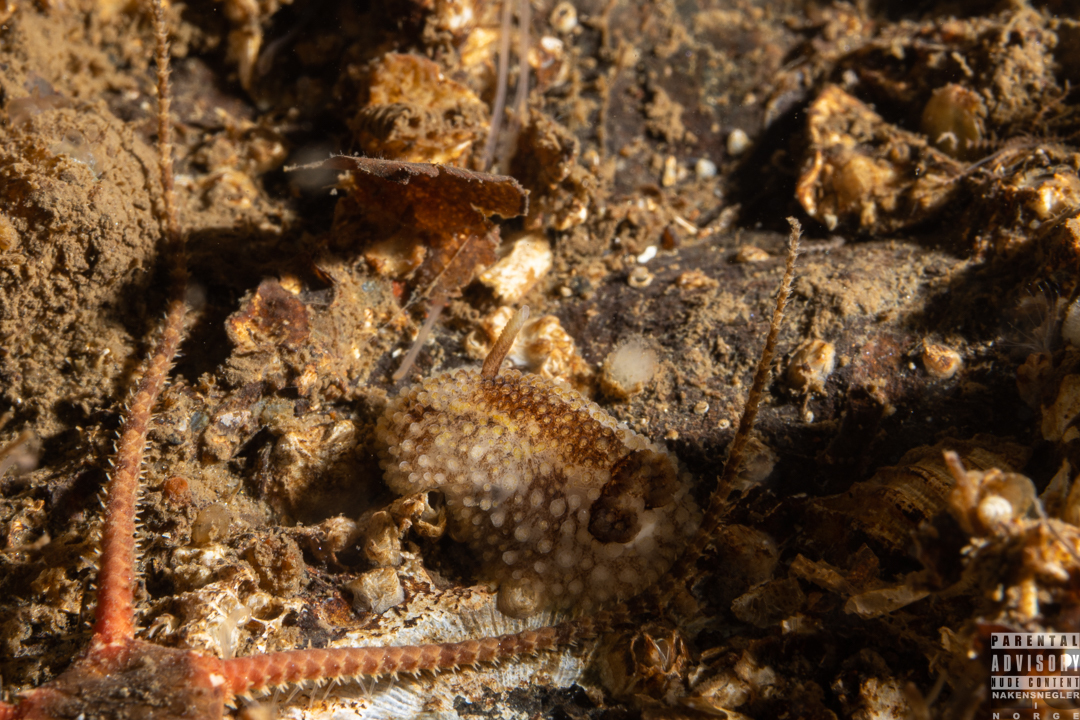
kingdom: Animalia
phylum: Mollusca
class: Gastropoda
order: Nudibranchia
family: Onchidorididae
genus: Onchidoris
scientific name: Onchidoris bilamellata
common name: Barnacle-eating onchidoris
